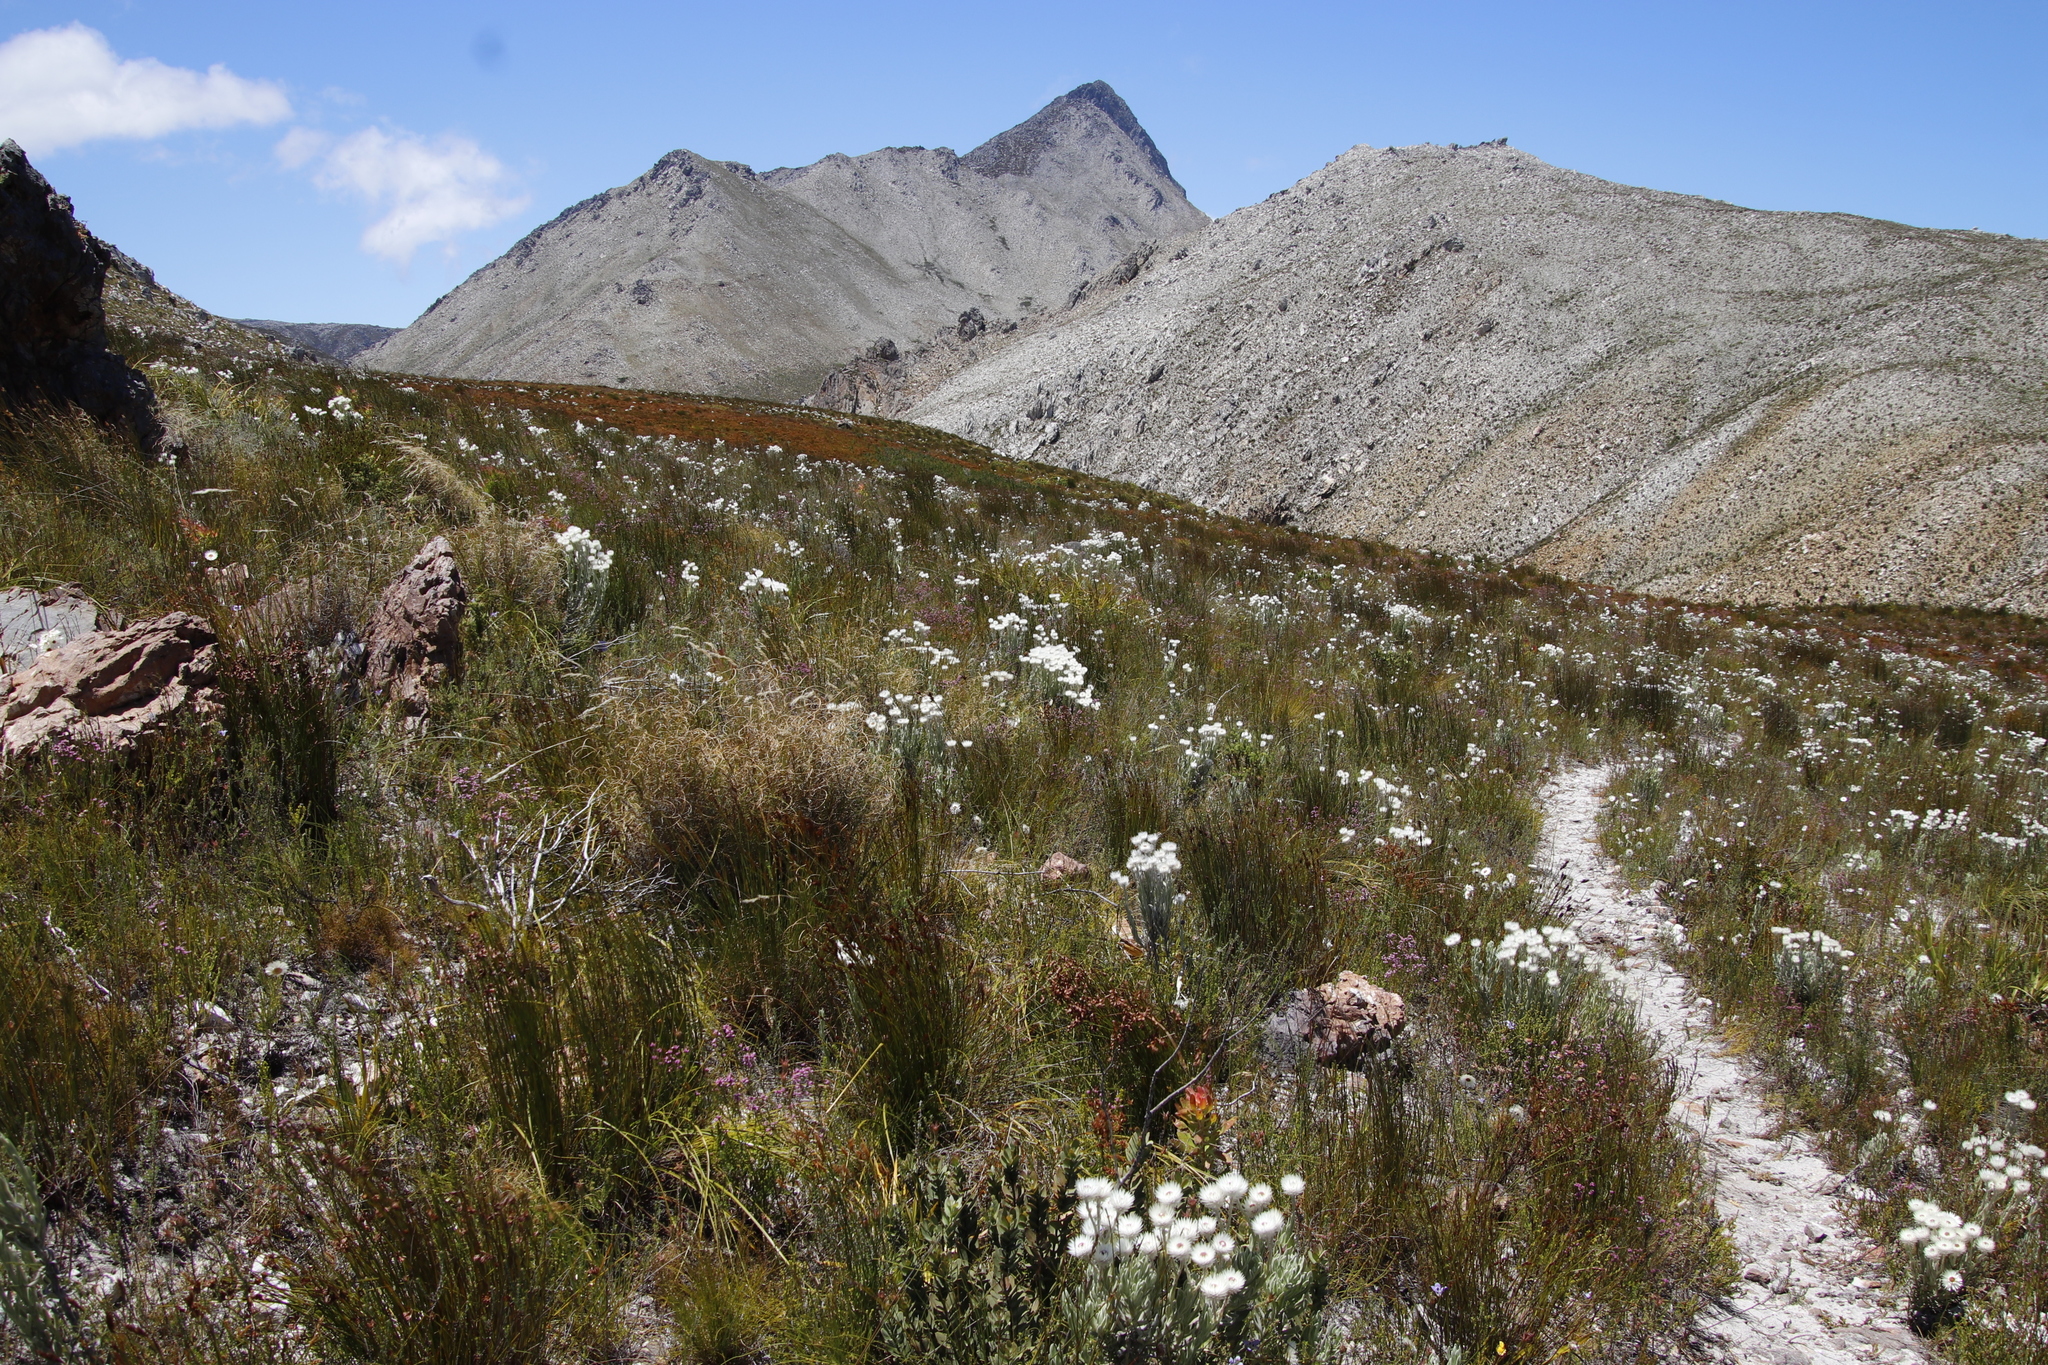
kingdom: Plantae
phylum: Tracheophyta
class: Magnoliopsida
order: Asterales
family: Asteraceae
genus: Syncarpha
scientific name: Syncarpha vestita
